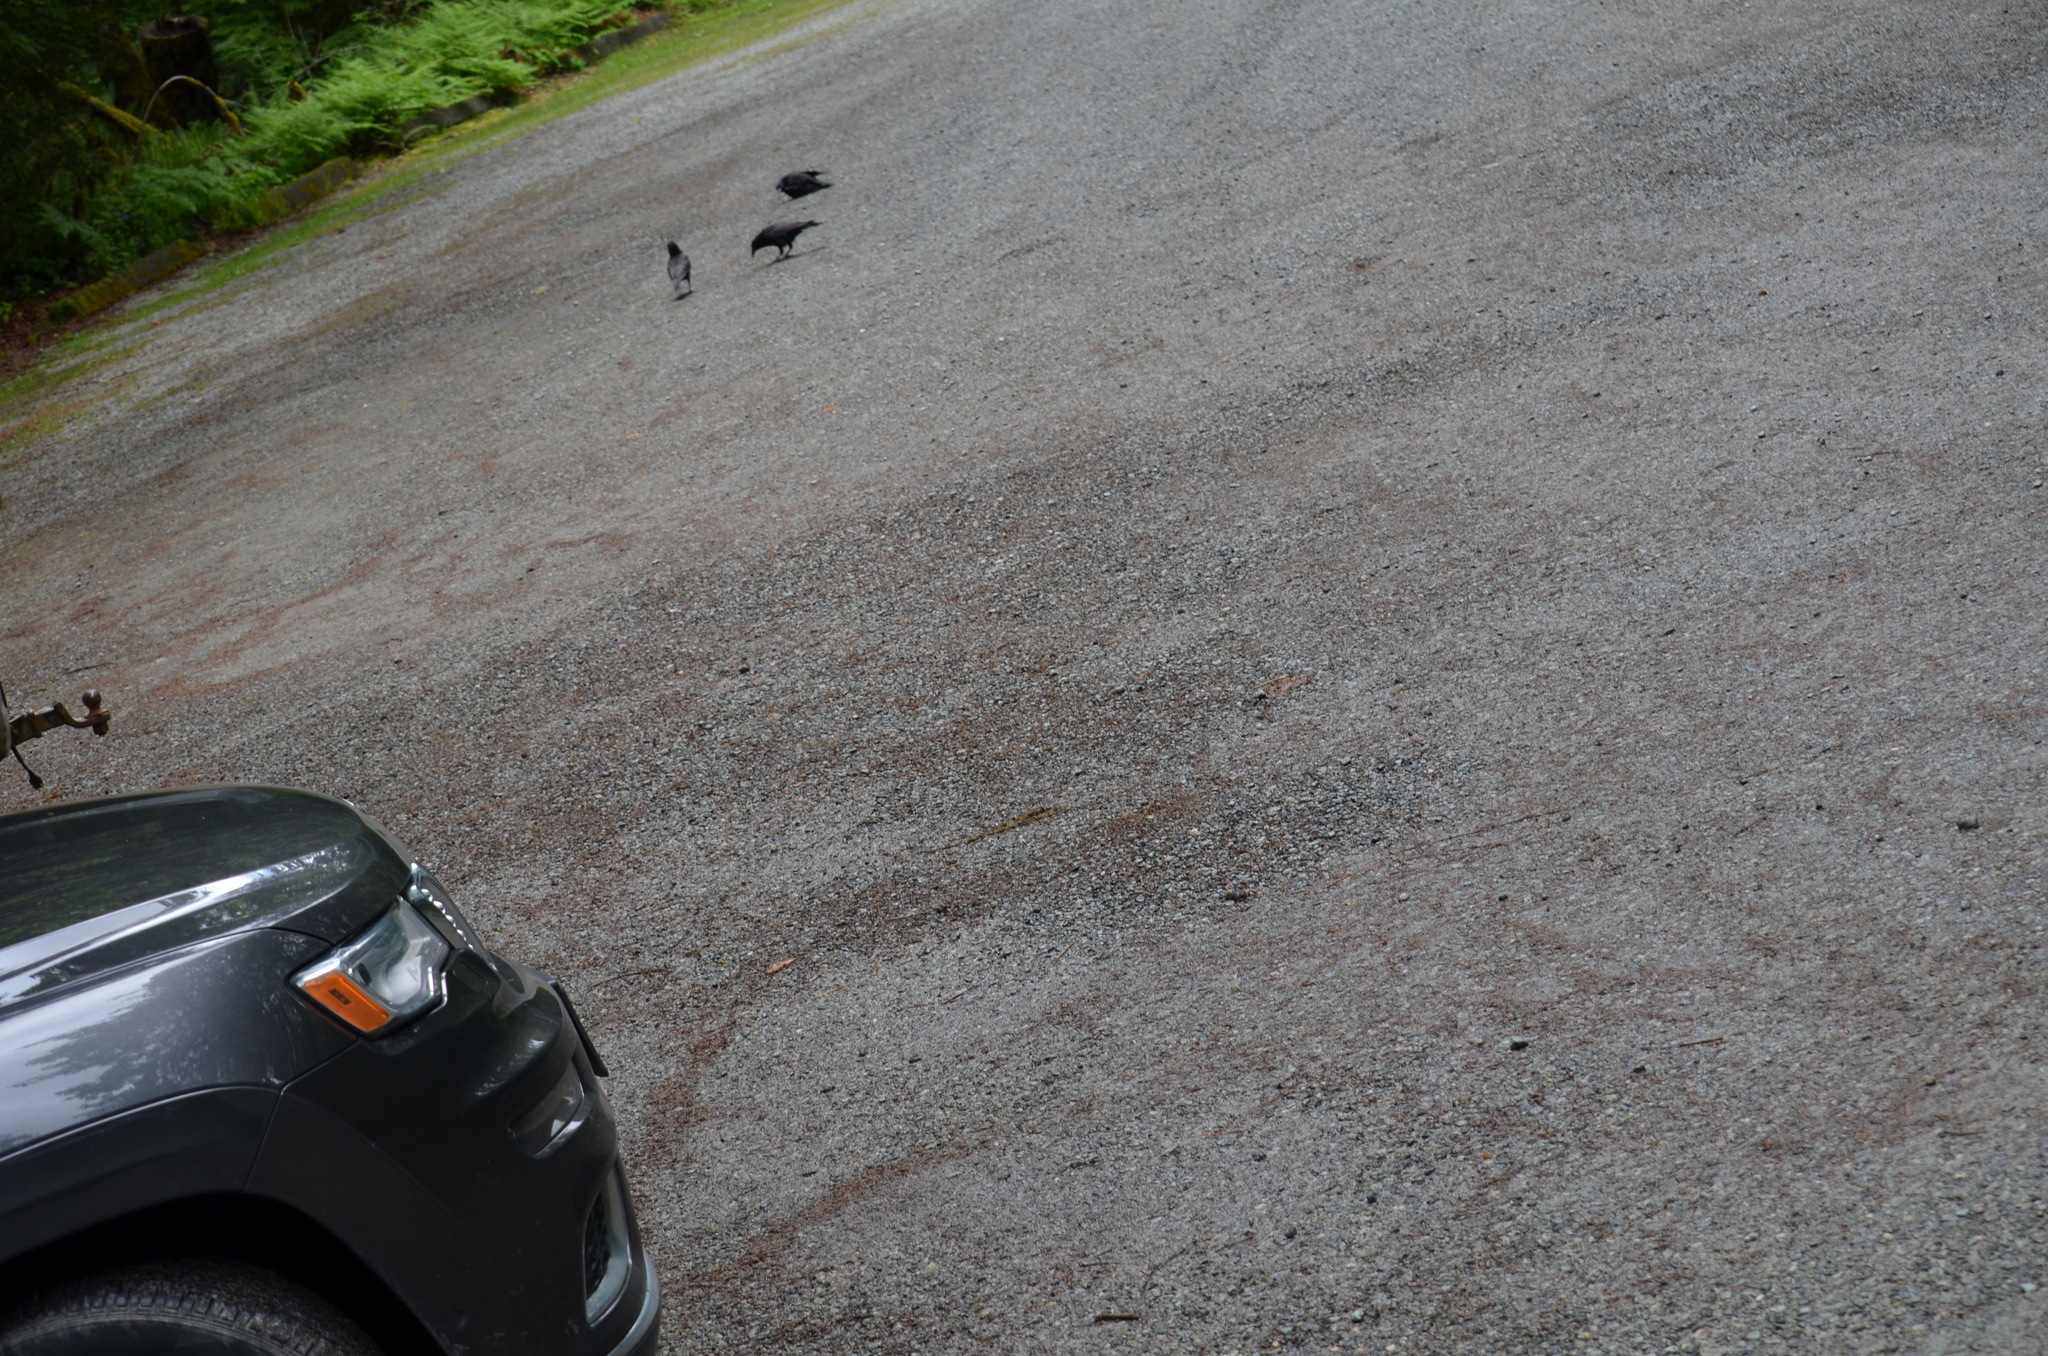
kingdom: Animalia
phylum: Chordata
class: Aves
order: Passeriformes
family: Corvidae
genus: Corvus
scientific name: Corvus brachyrhynchos
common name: American crow
